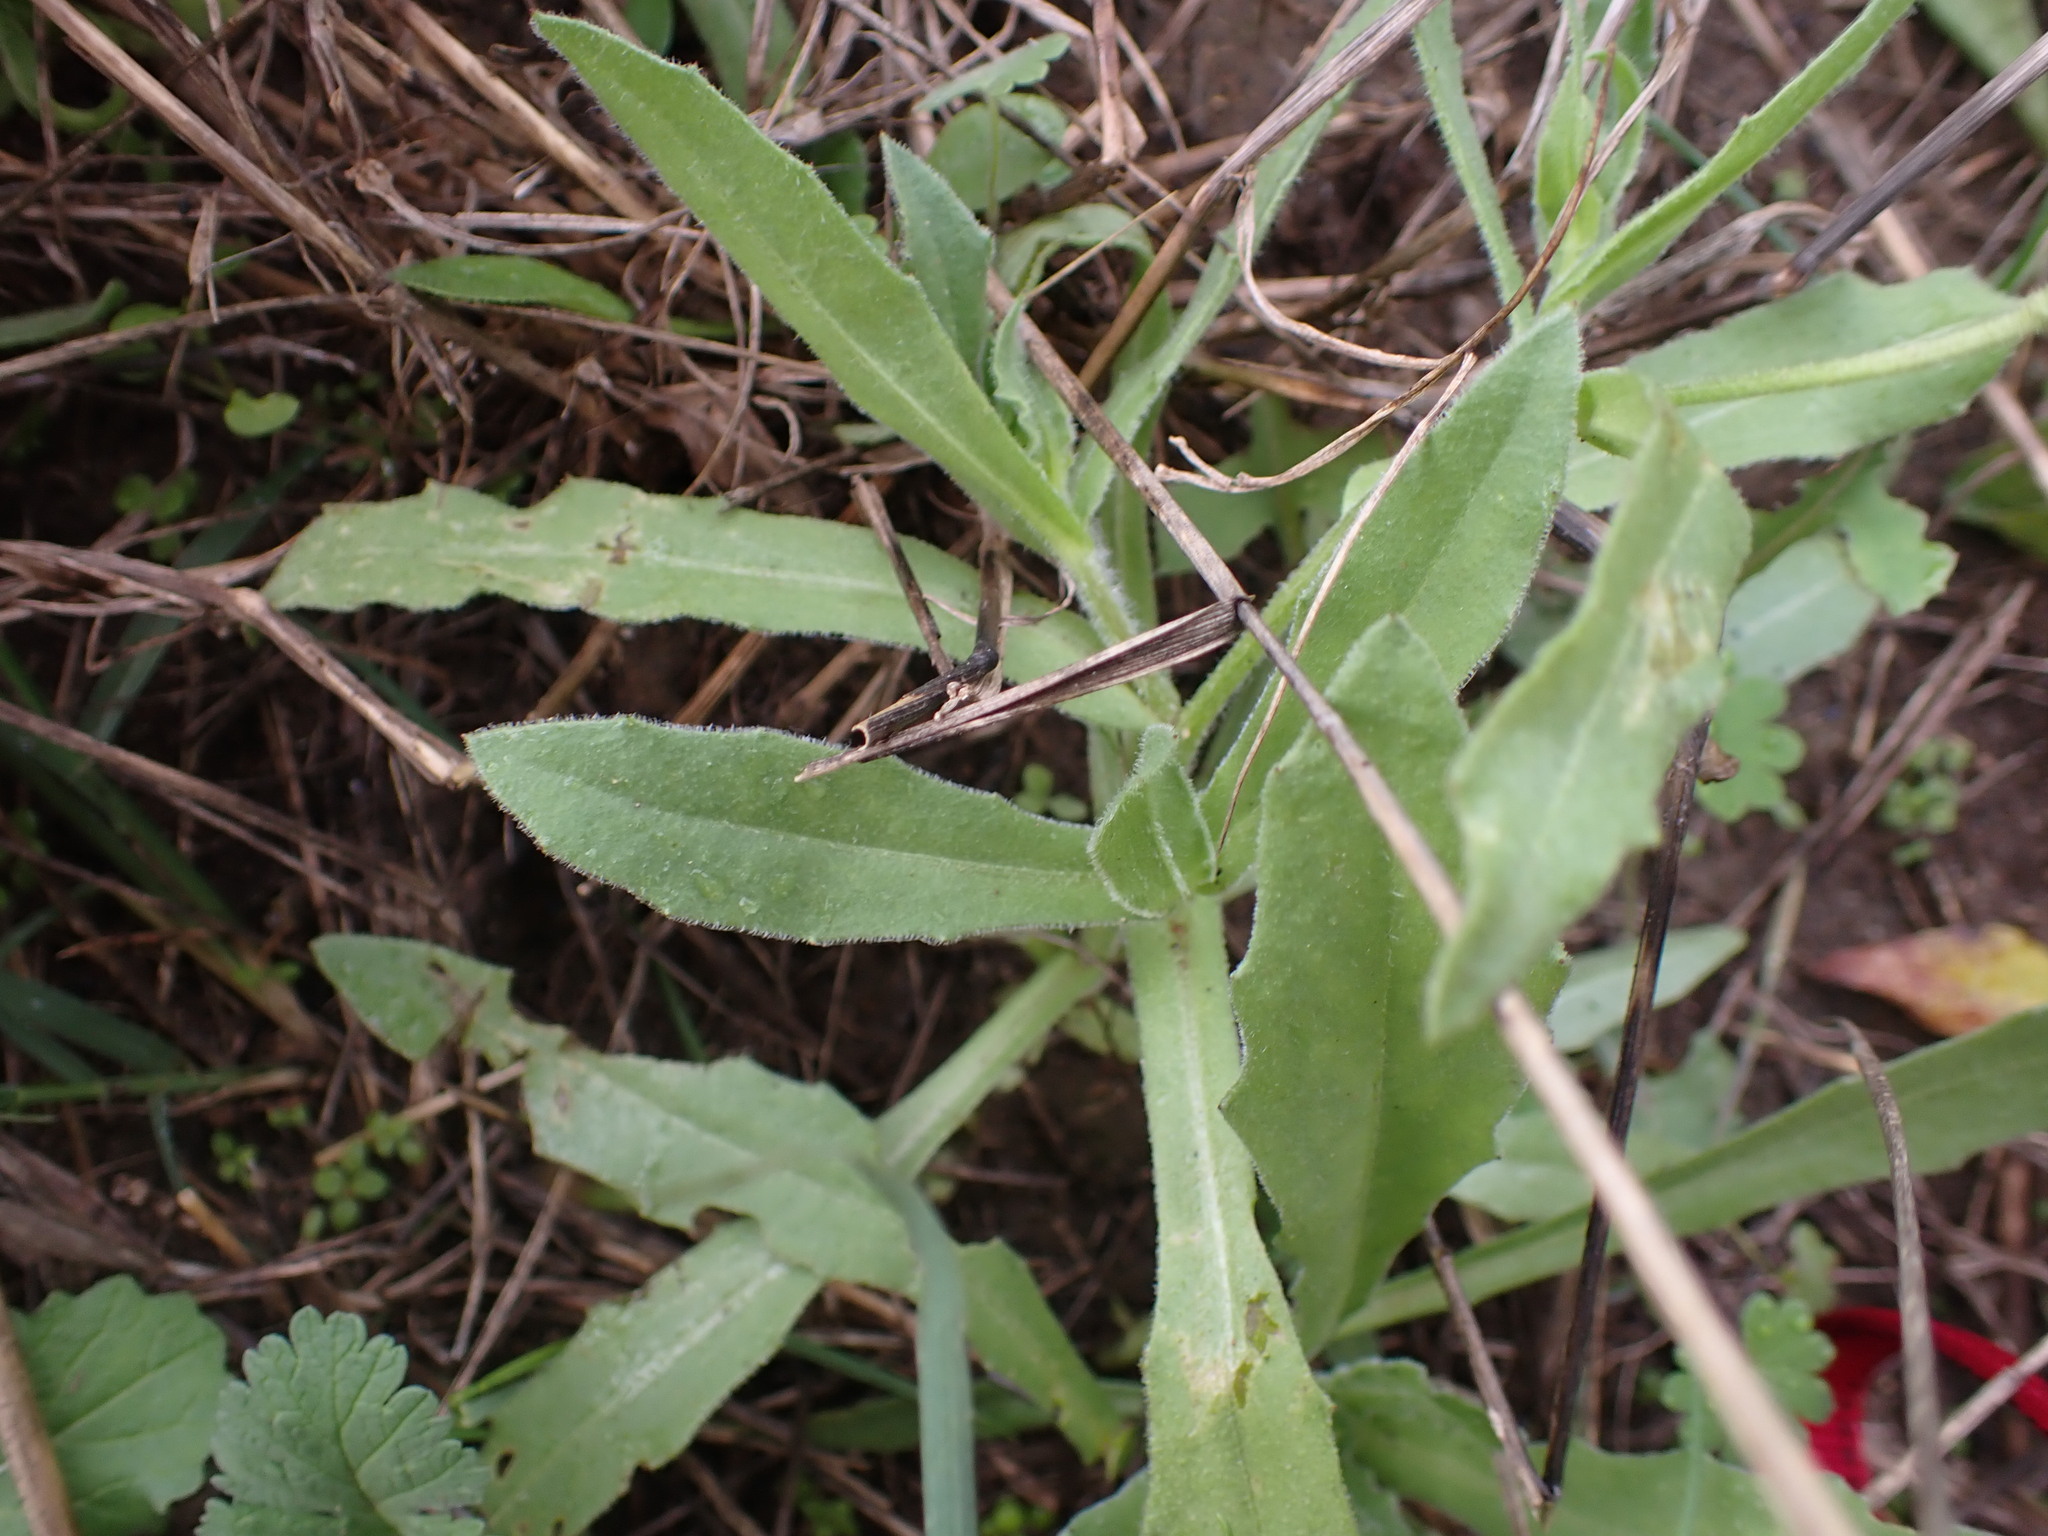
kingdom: Plantae
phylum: Tracheophyta
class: Magnoliopsida
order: Asterales
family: Asteraceae
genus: Calendula
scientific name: Calendula arvensis
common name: Field marigold
